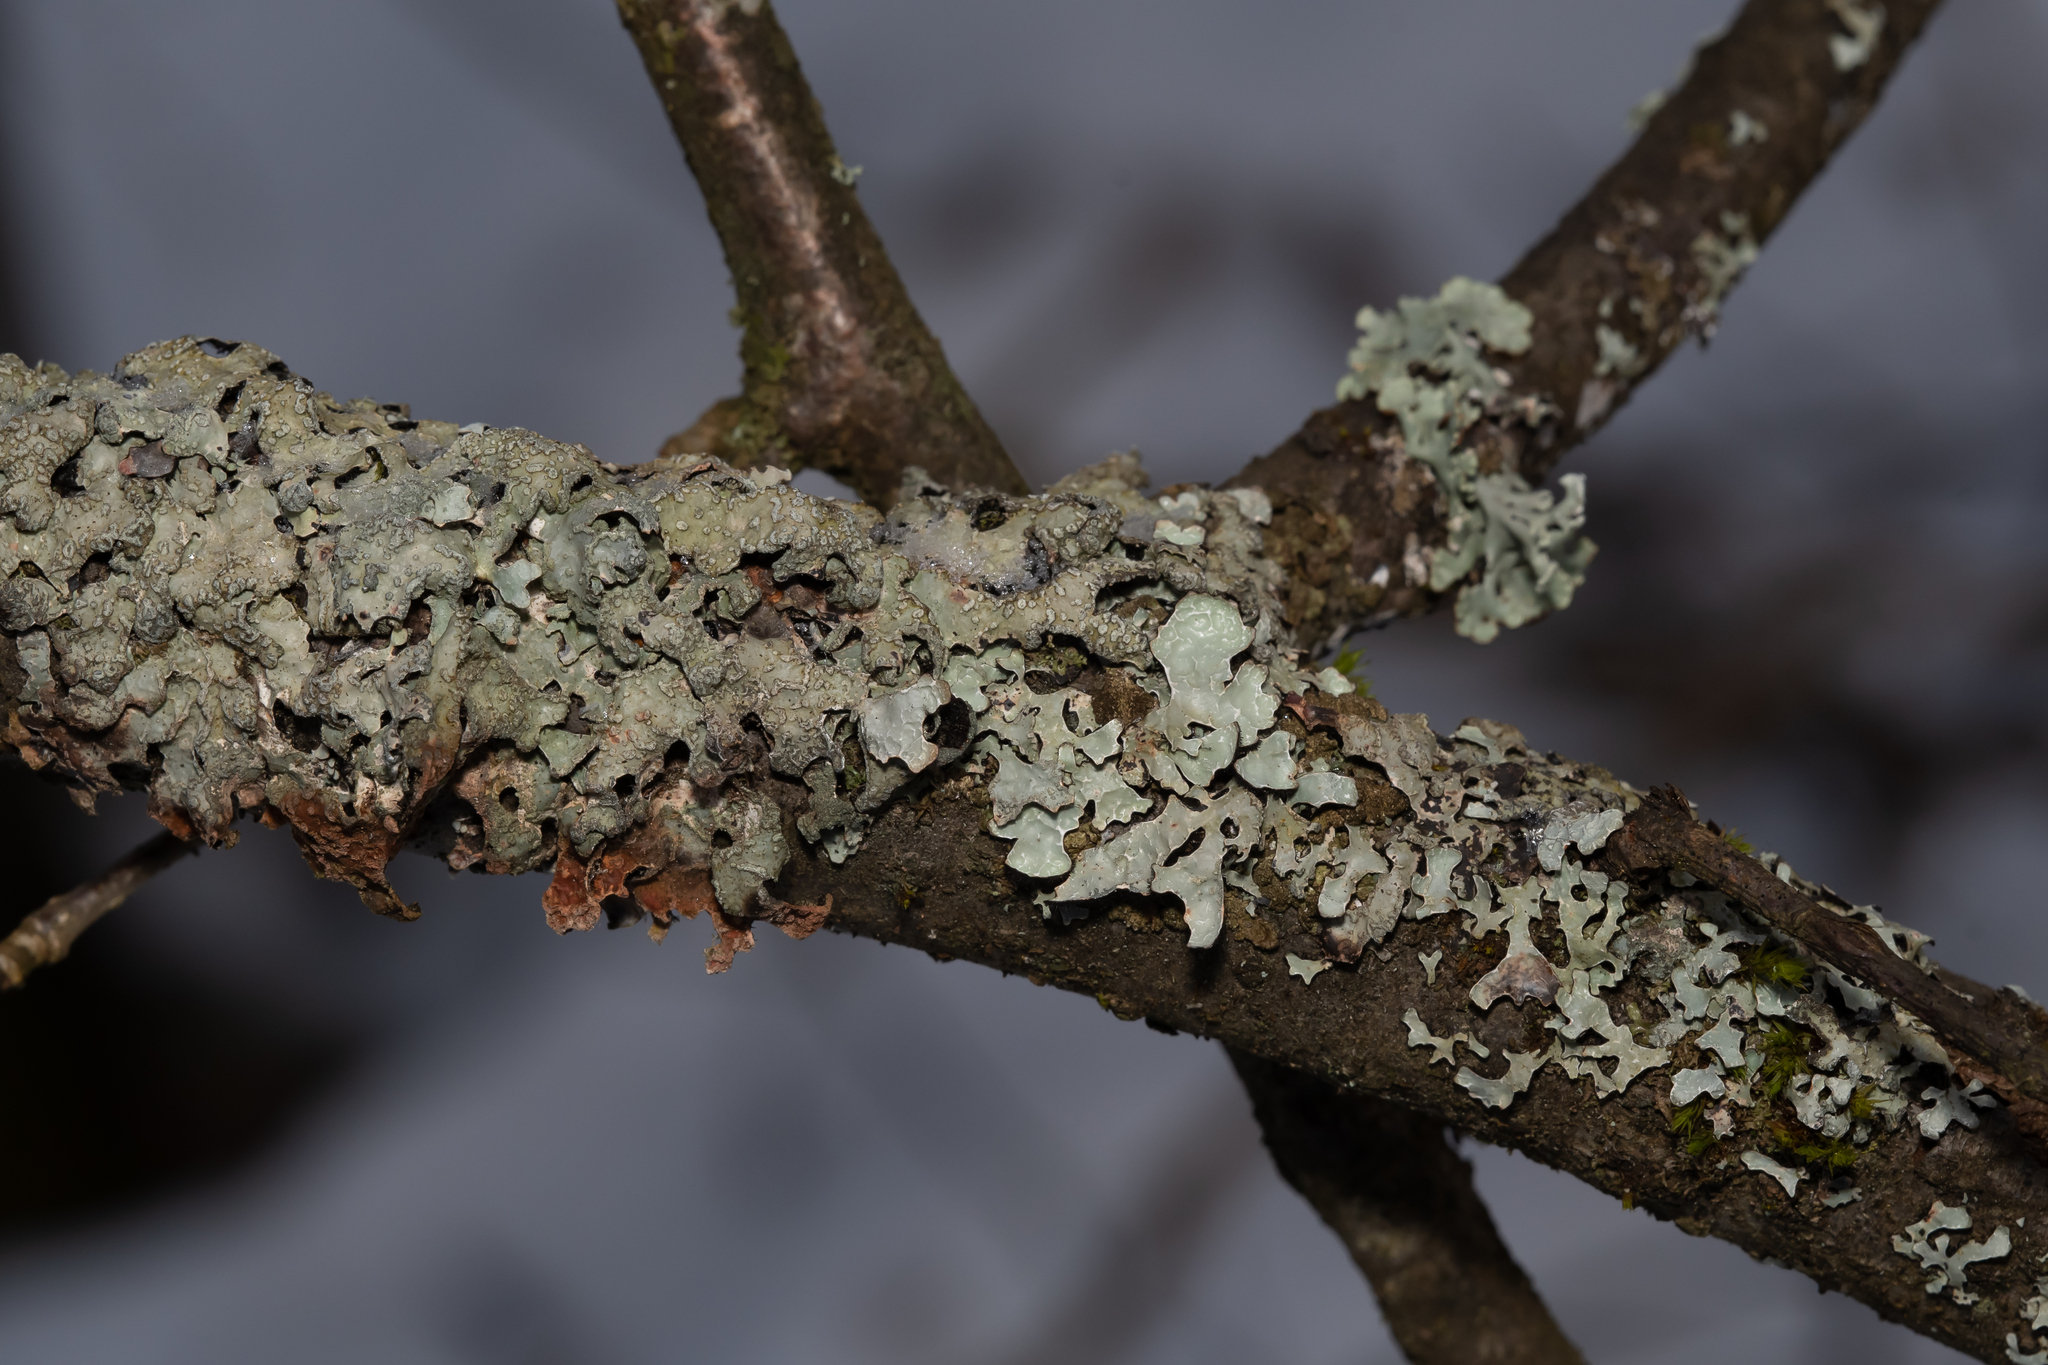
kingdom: Fungi
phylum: Ascomycota
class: Lecanoromycetes
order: Lecanorales
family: Parmeliaceae
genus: Parmelia
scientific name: Parmelia sulcata
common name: Netted shield lichen
